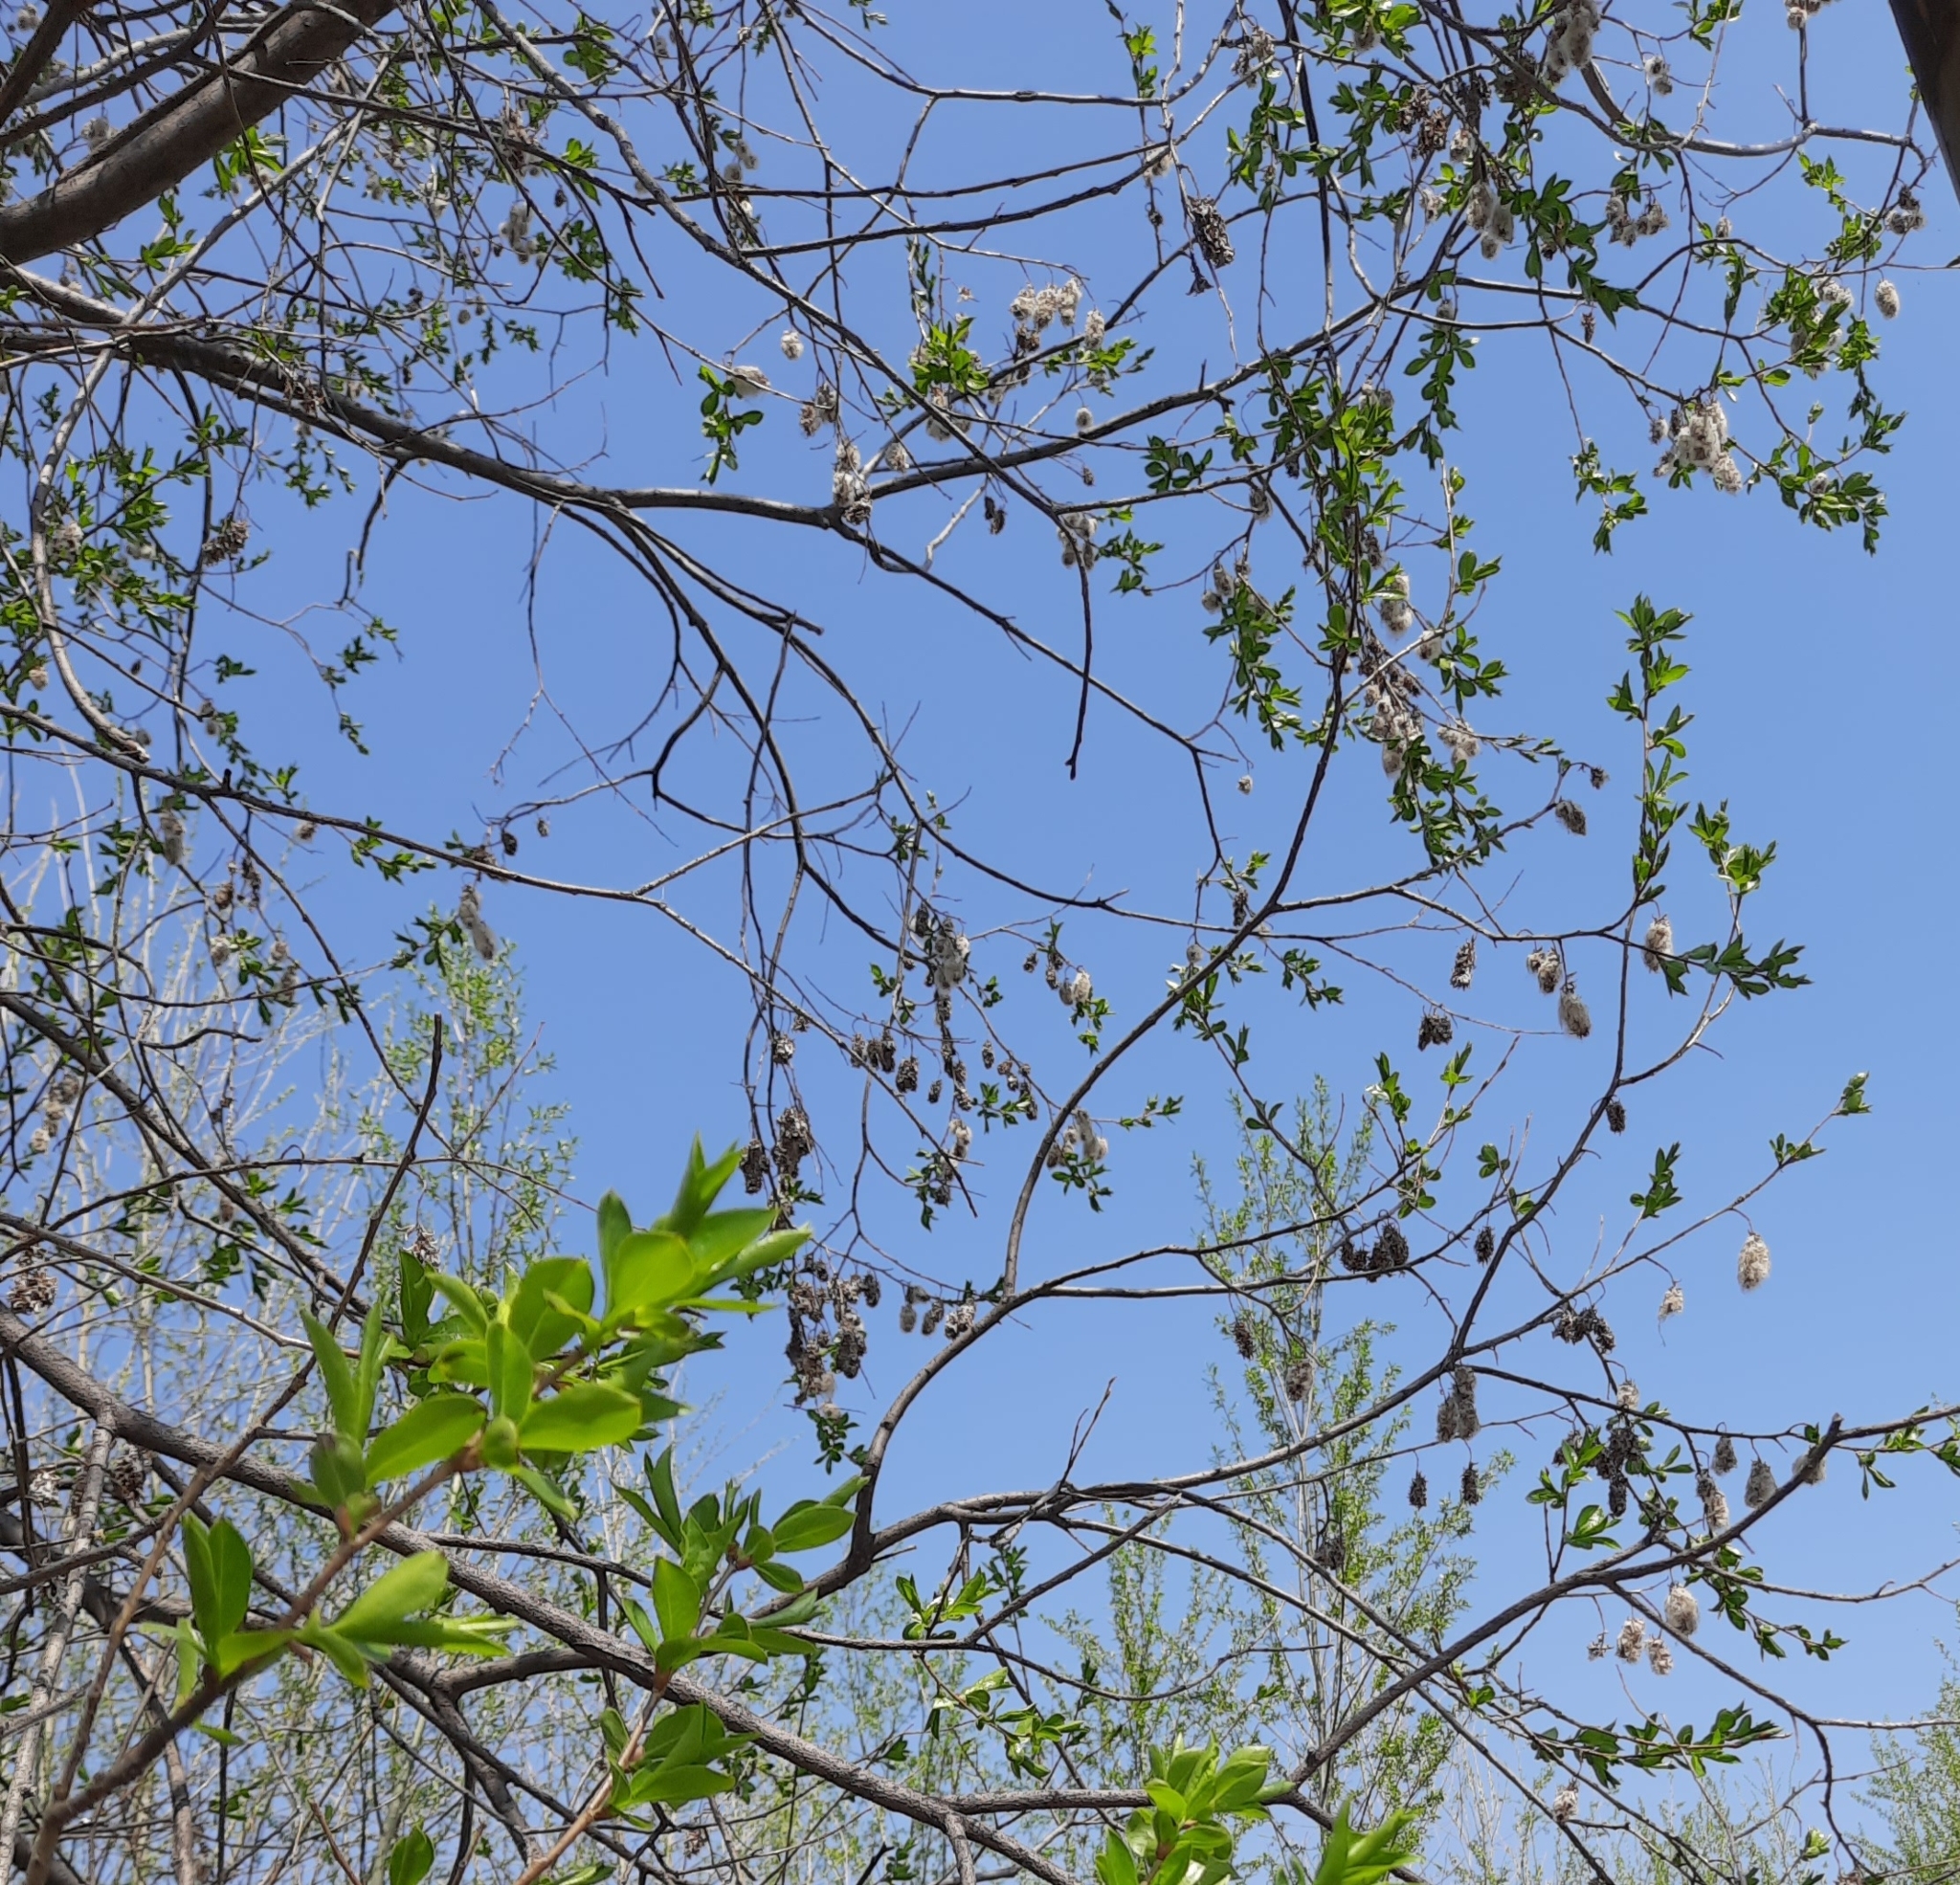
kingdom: Plantae
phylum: Tracheophyta
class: Magnoliopsida
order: Malpighiales
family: Salicaceae
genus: Salix
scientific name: Salix pentandra
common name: Bay willow
